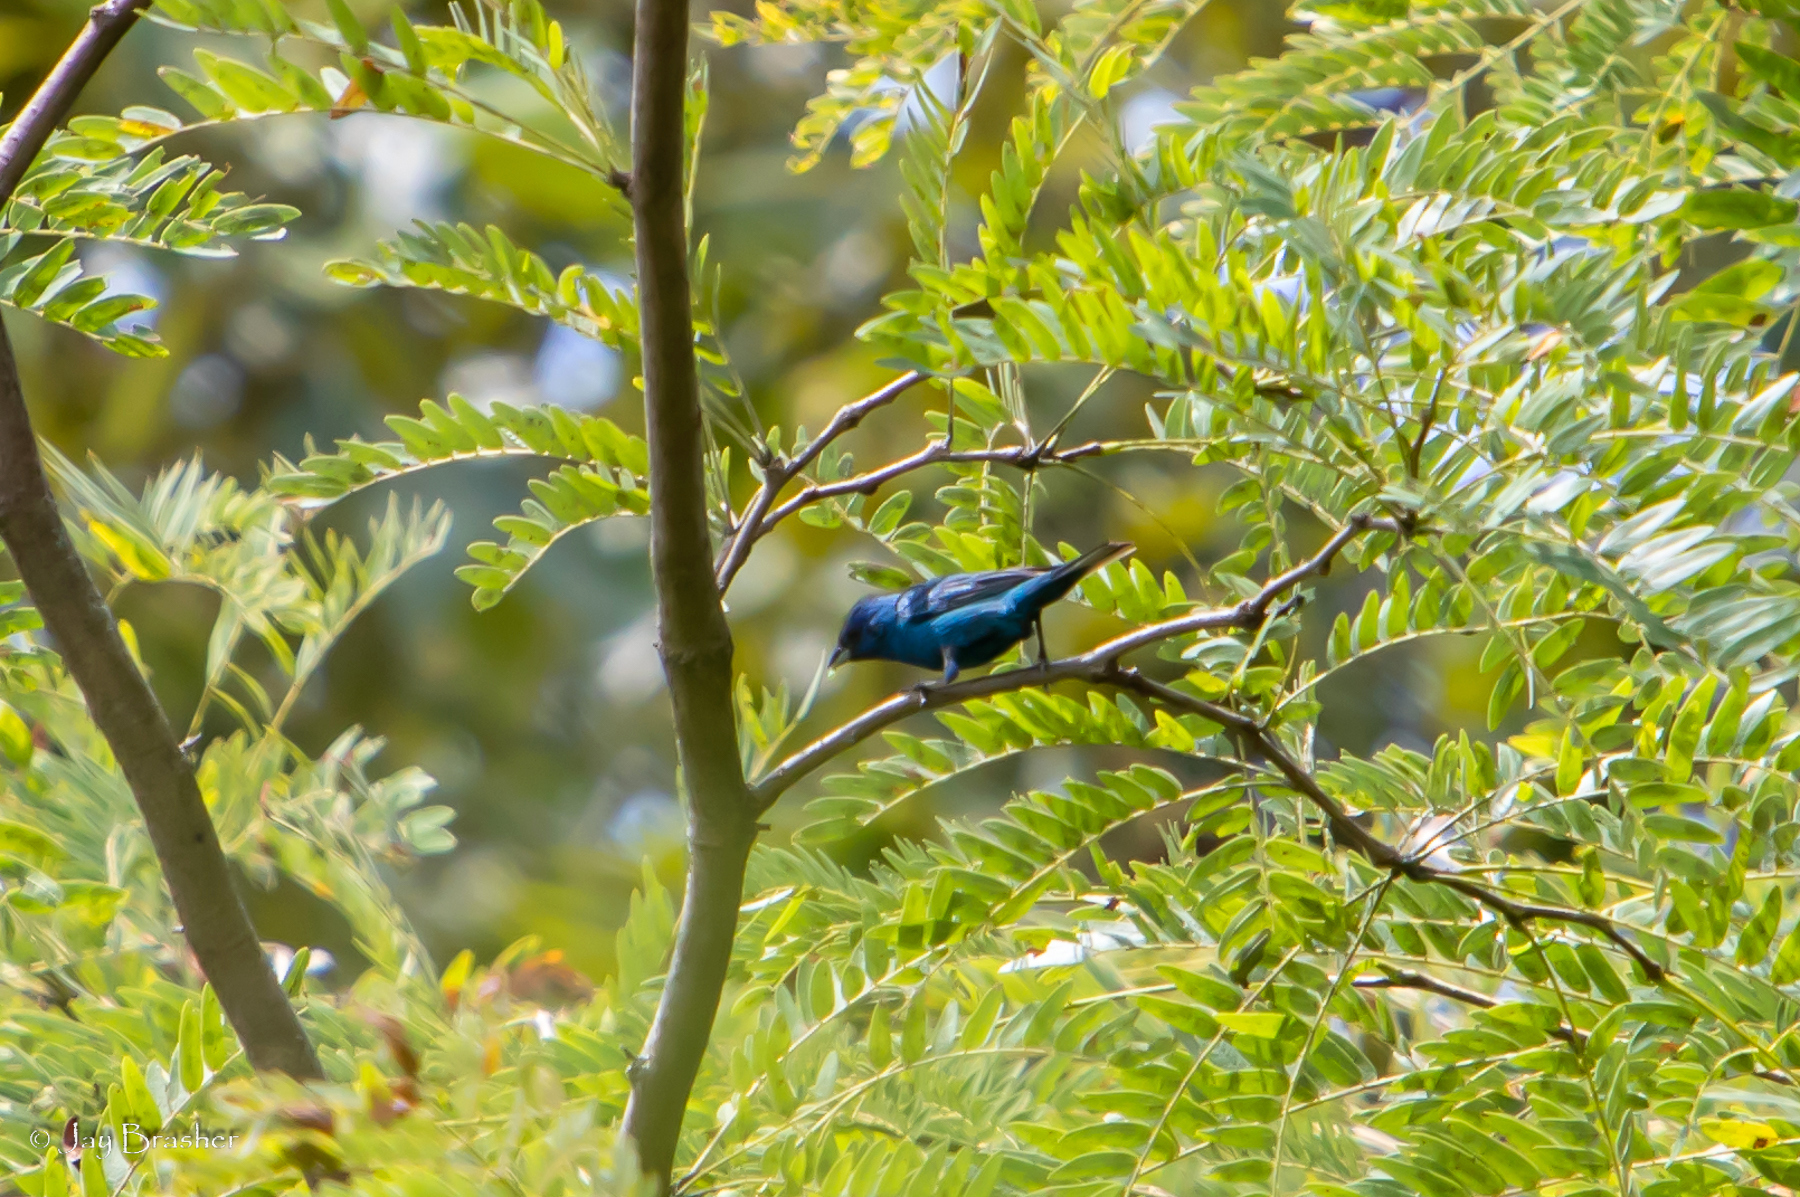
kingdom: Animalia
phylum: Chordata
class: Aves
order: Passeriformes
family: Cardinalidae
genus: Passerina
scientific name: Passerina cyanea
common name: Indigo bunting
